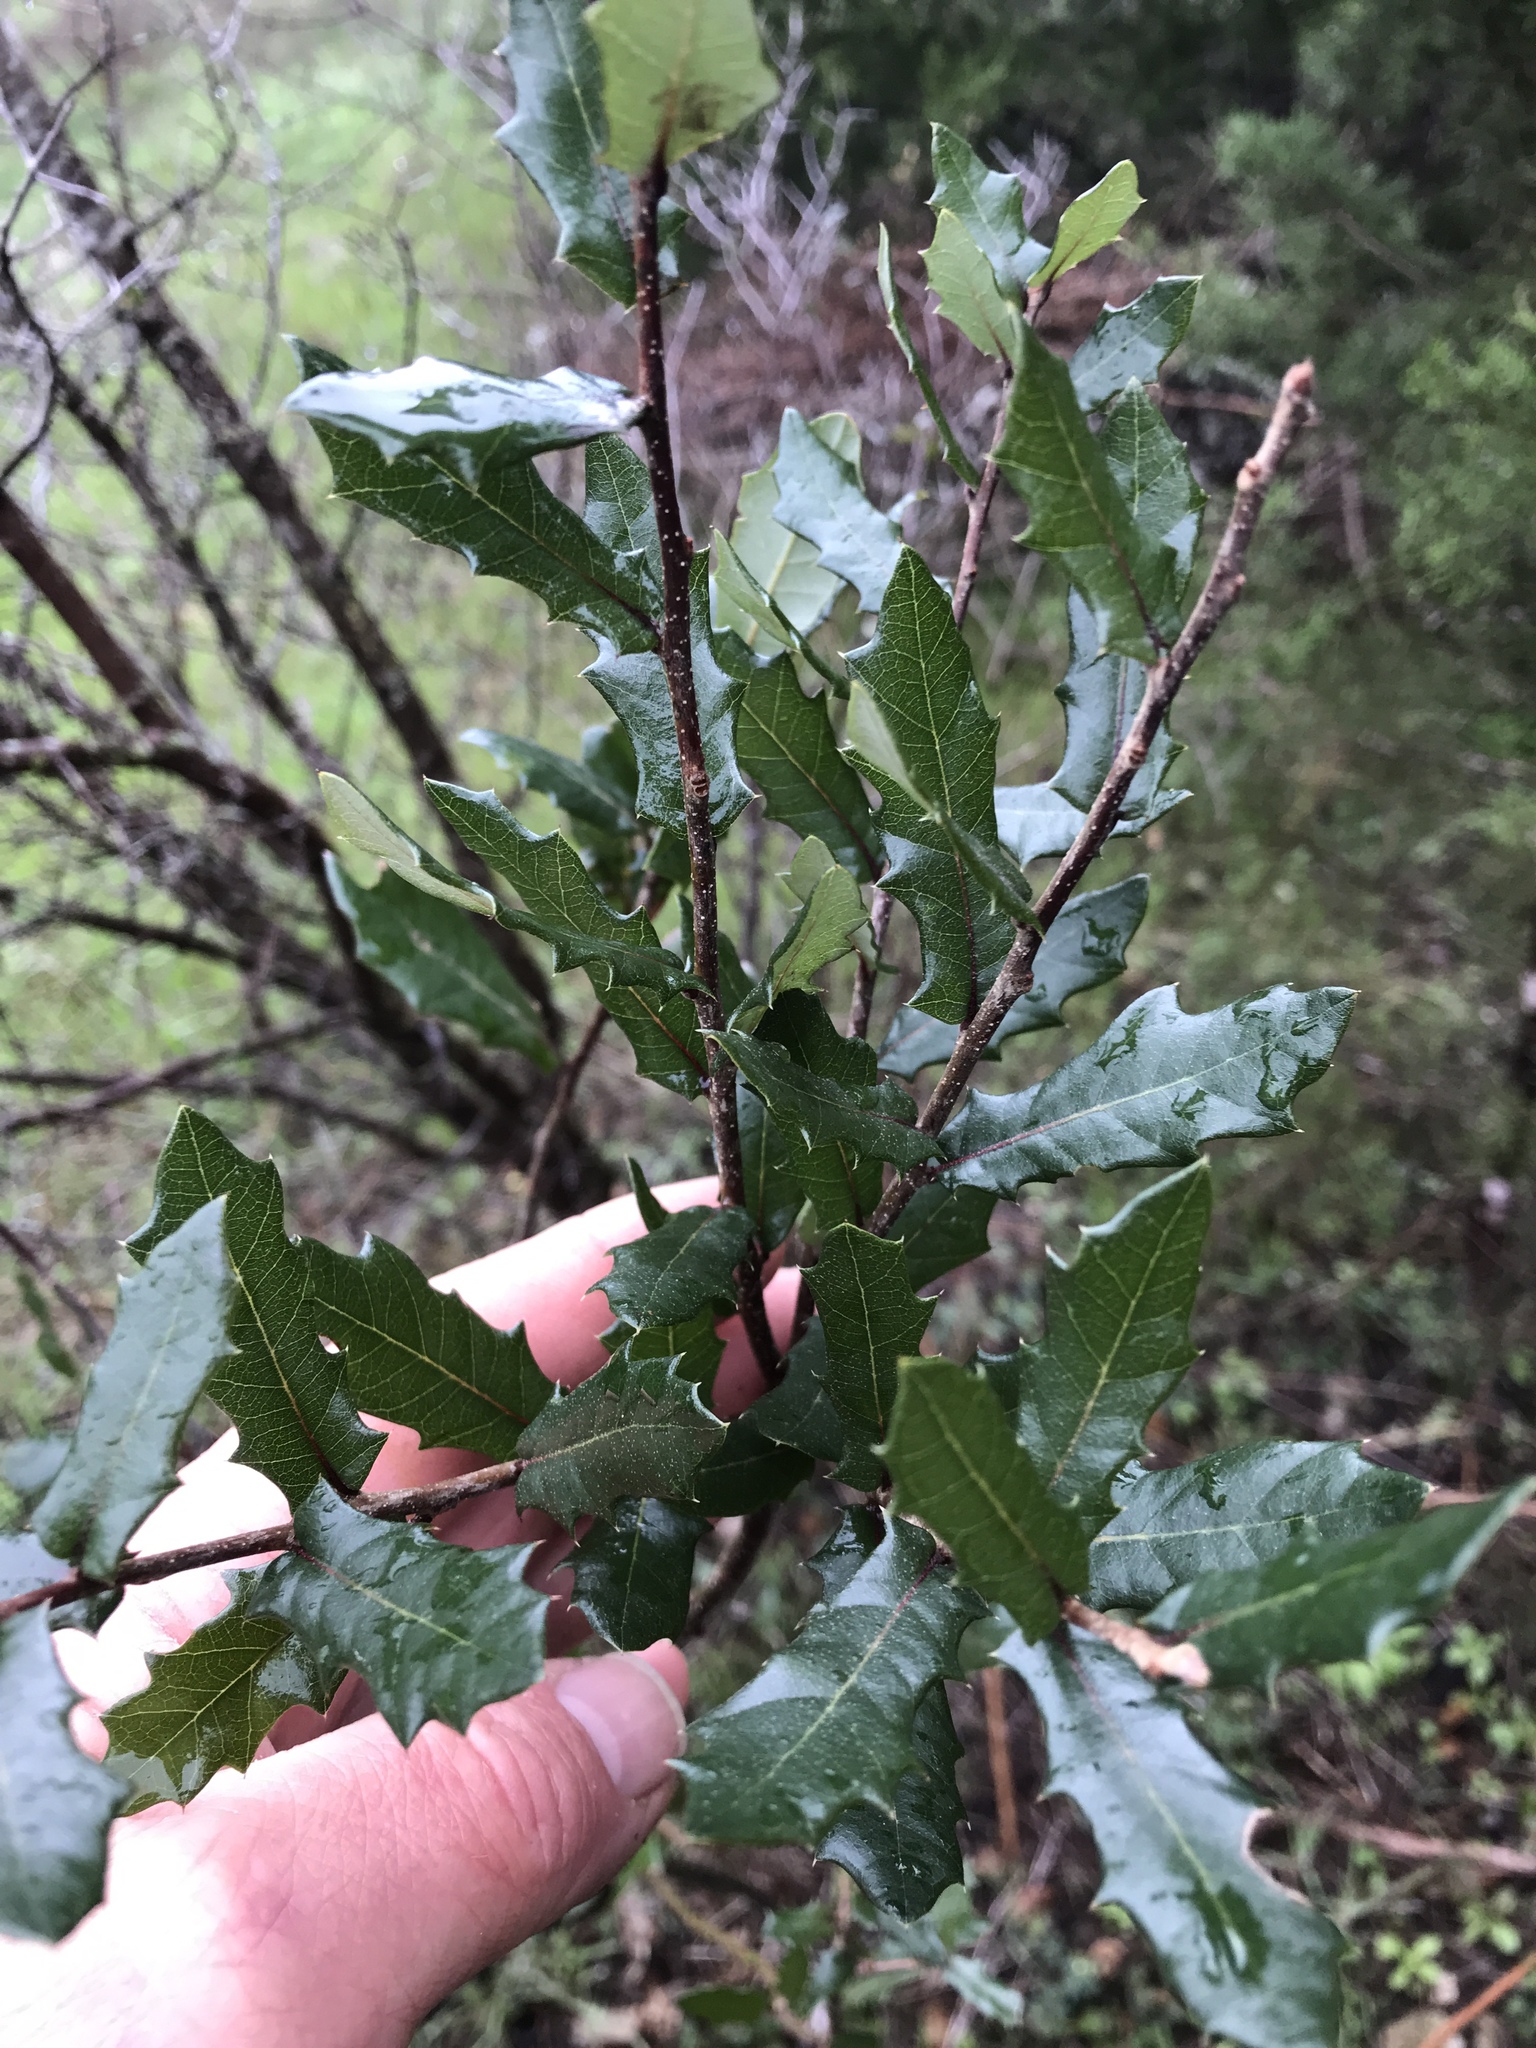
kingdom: Plantae
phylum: Tracheophyta
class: Magnoliopsida
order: Fagales
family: Fagaceae
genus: Quercus
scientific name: Quercus fusiformis
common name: Texas live oak
